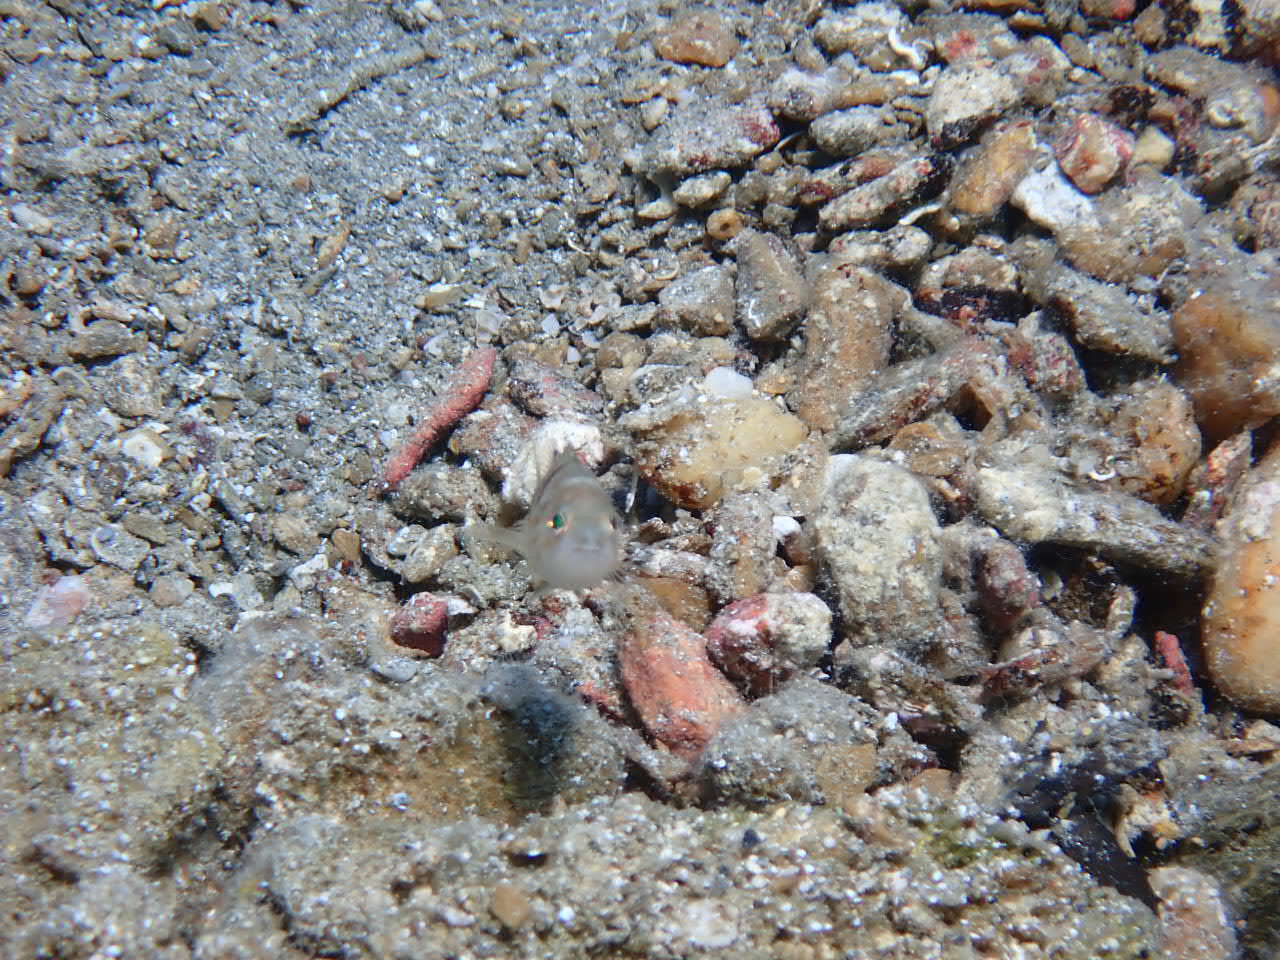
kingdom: Animalia
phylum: Chordata
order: Perciformes
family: Serranidae
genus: Serranus
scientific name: Serranus hepatus
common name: Brown comber
